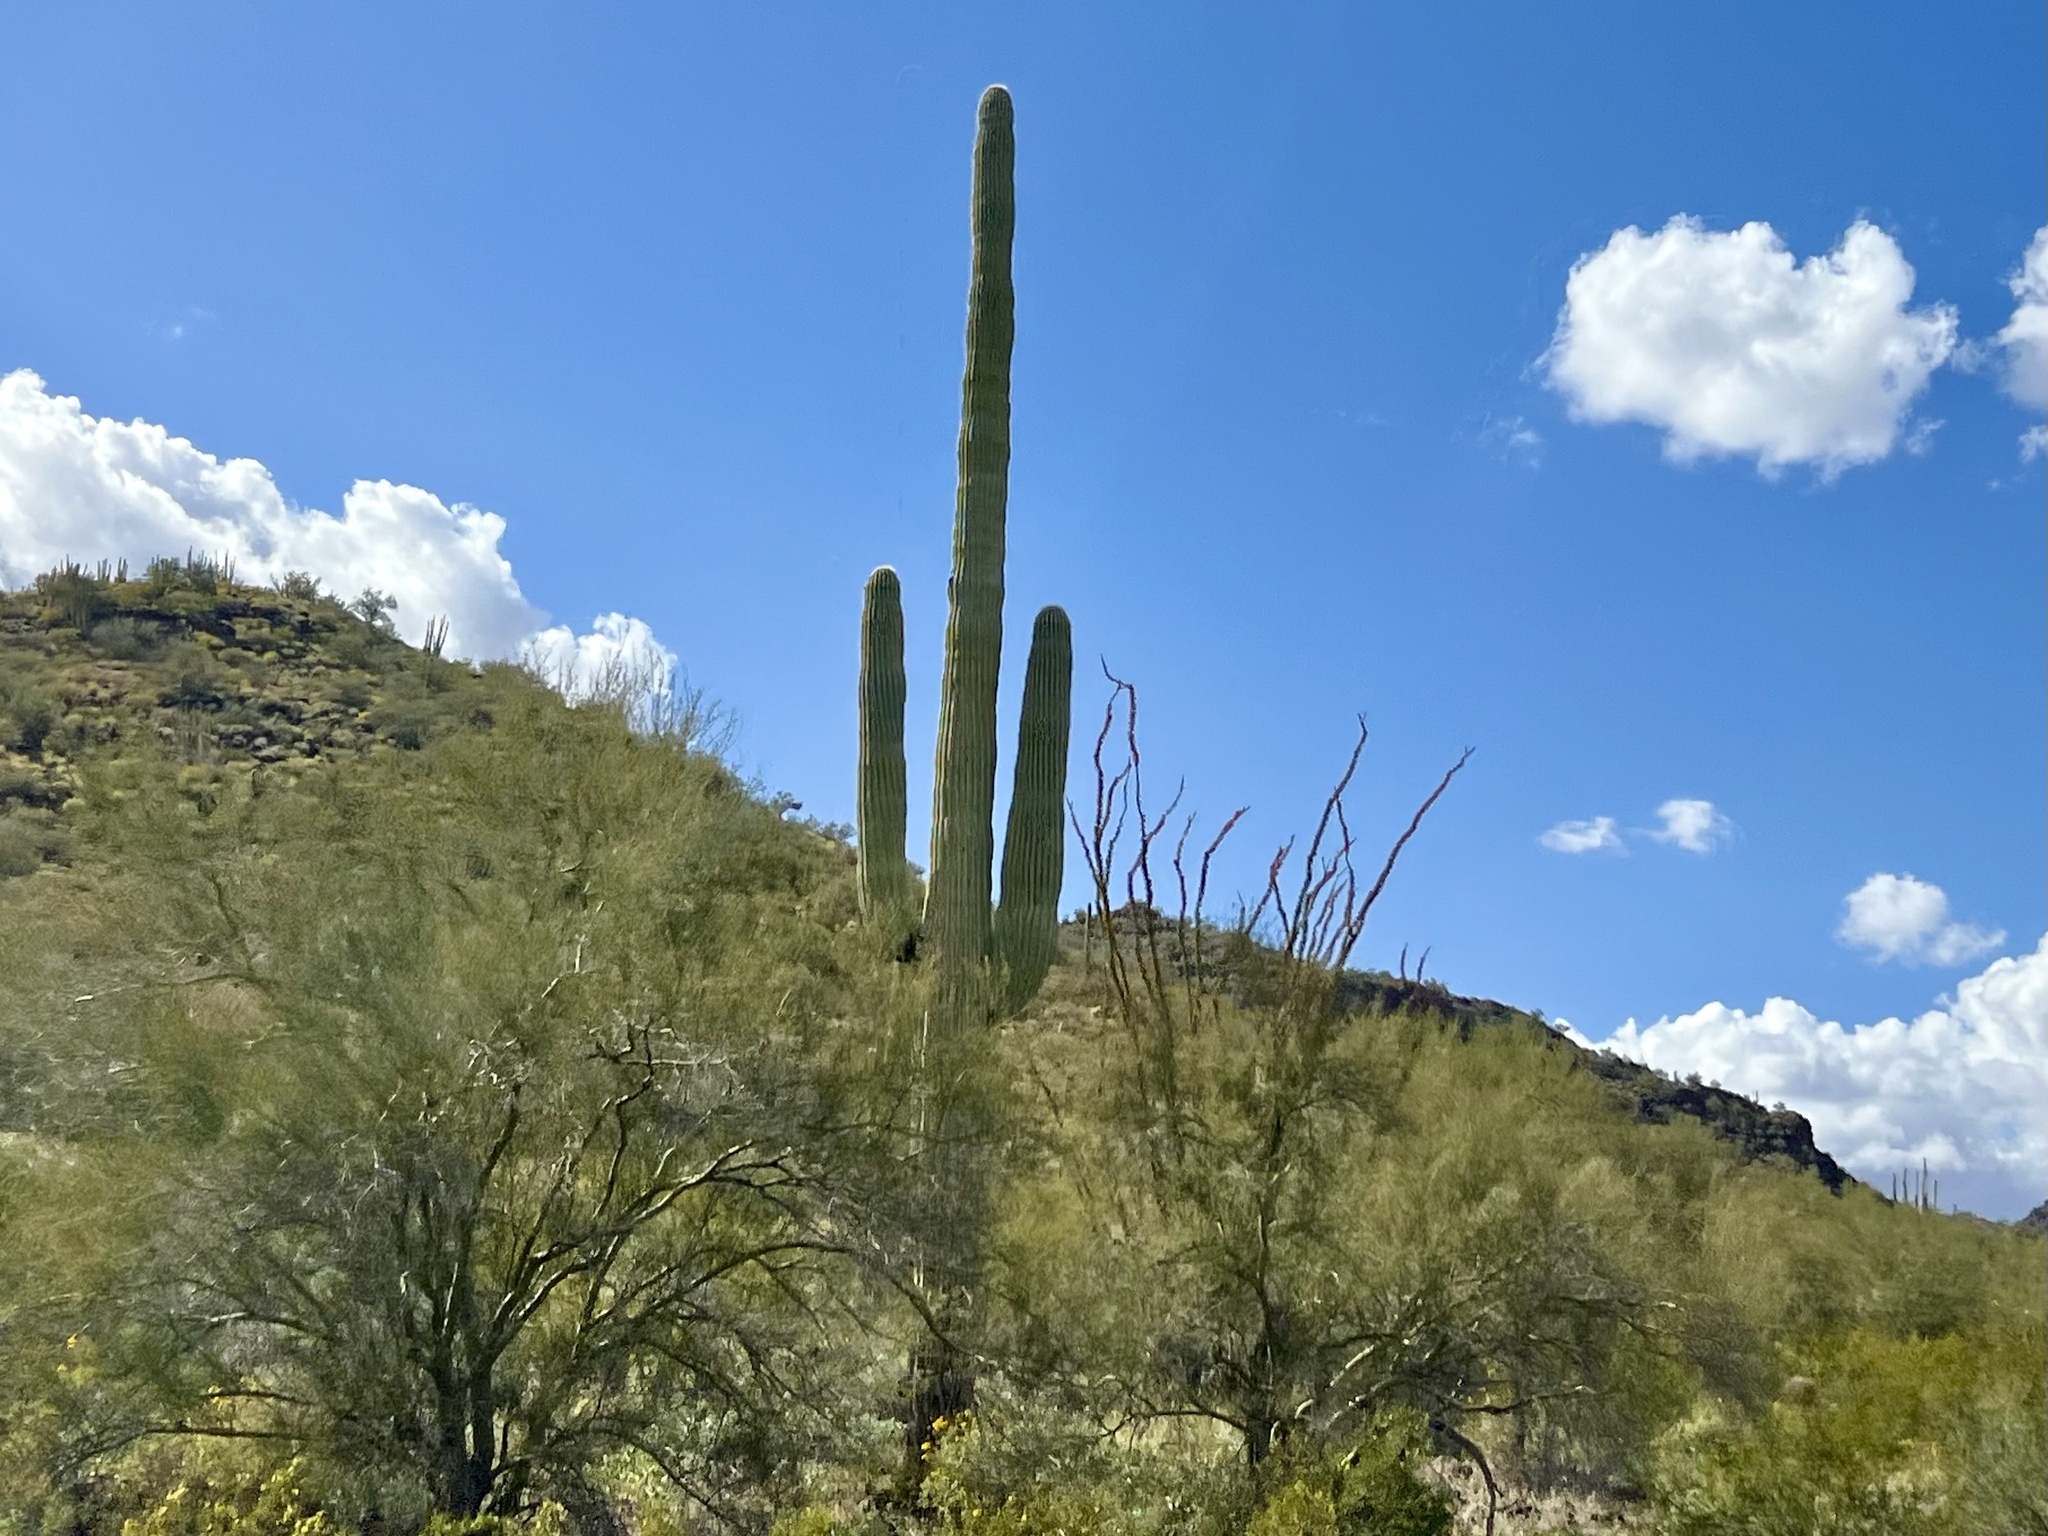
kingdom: Plantae
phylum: Tracheophyta
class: Magnoliopsida
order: Caryophyllales
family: Cactaceae
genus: Carnegiea
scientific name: Carnegiea gigantea
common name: Saguaro
